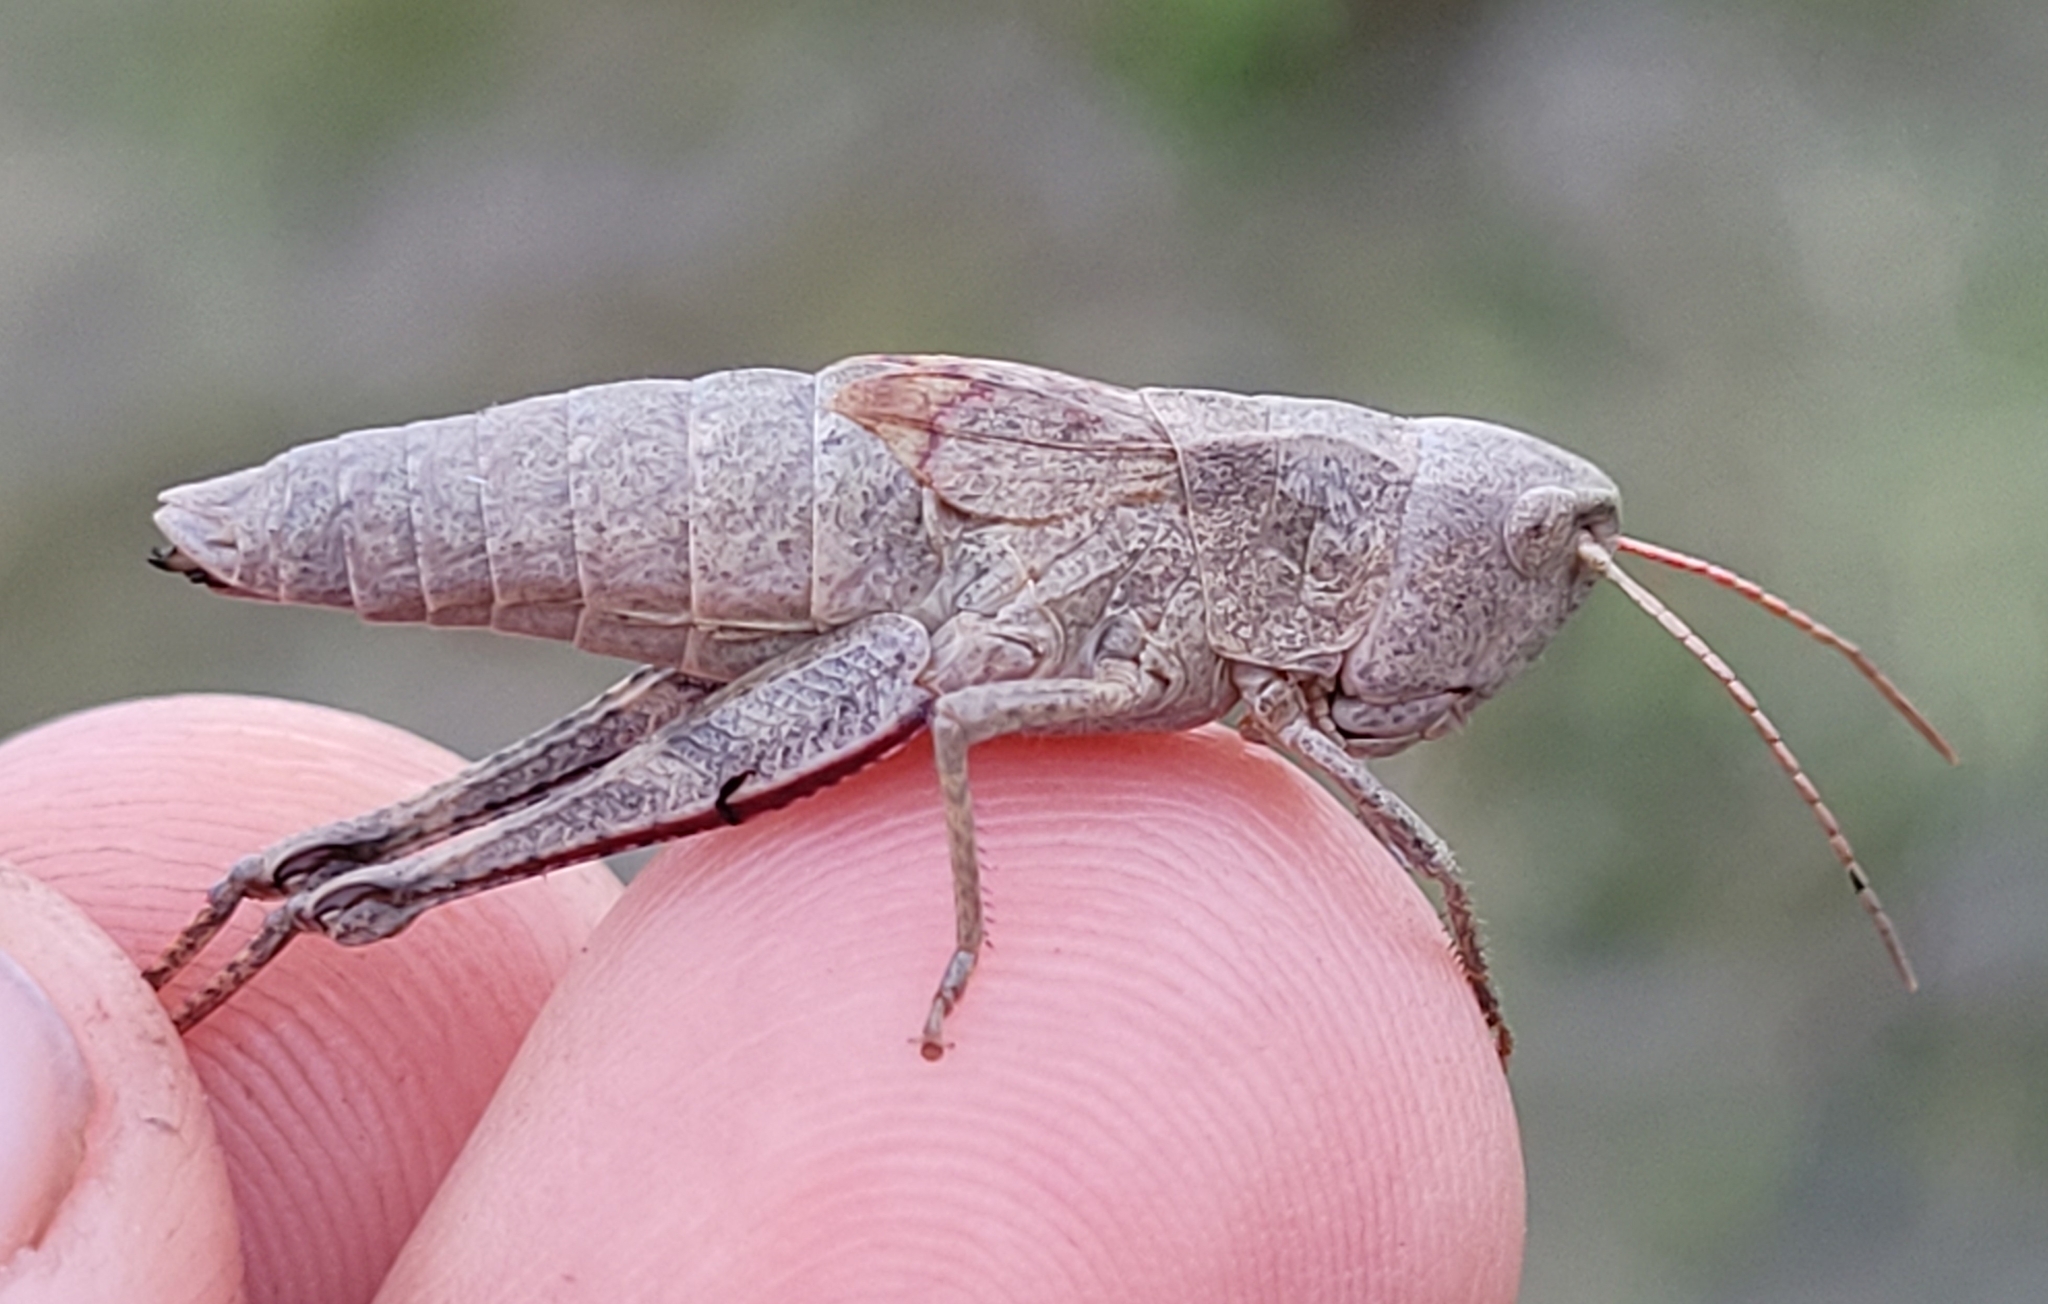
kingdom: Animalia
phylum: Arthropoda
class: Insecta
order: Orthoptera
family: Acrididae
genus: Chloealtis
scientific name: Chloealtis abdominalis
